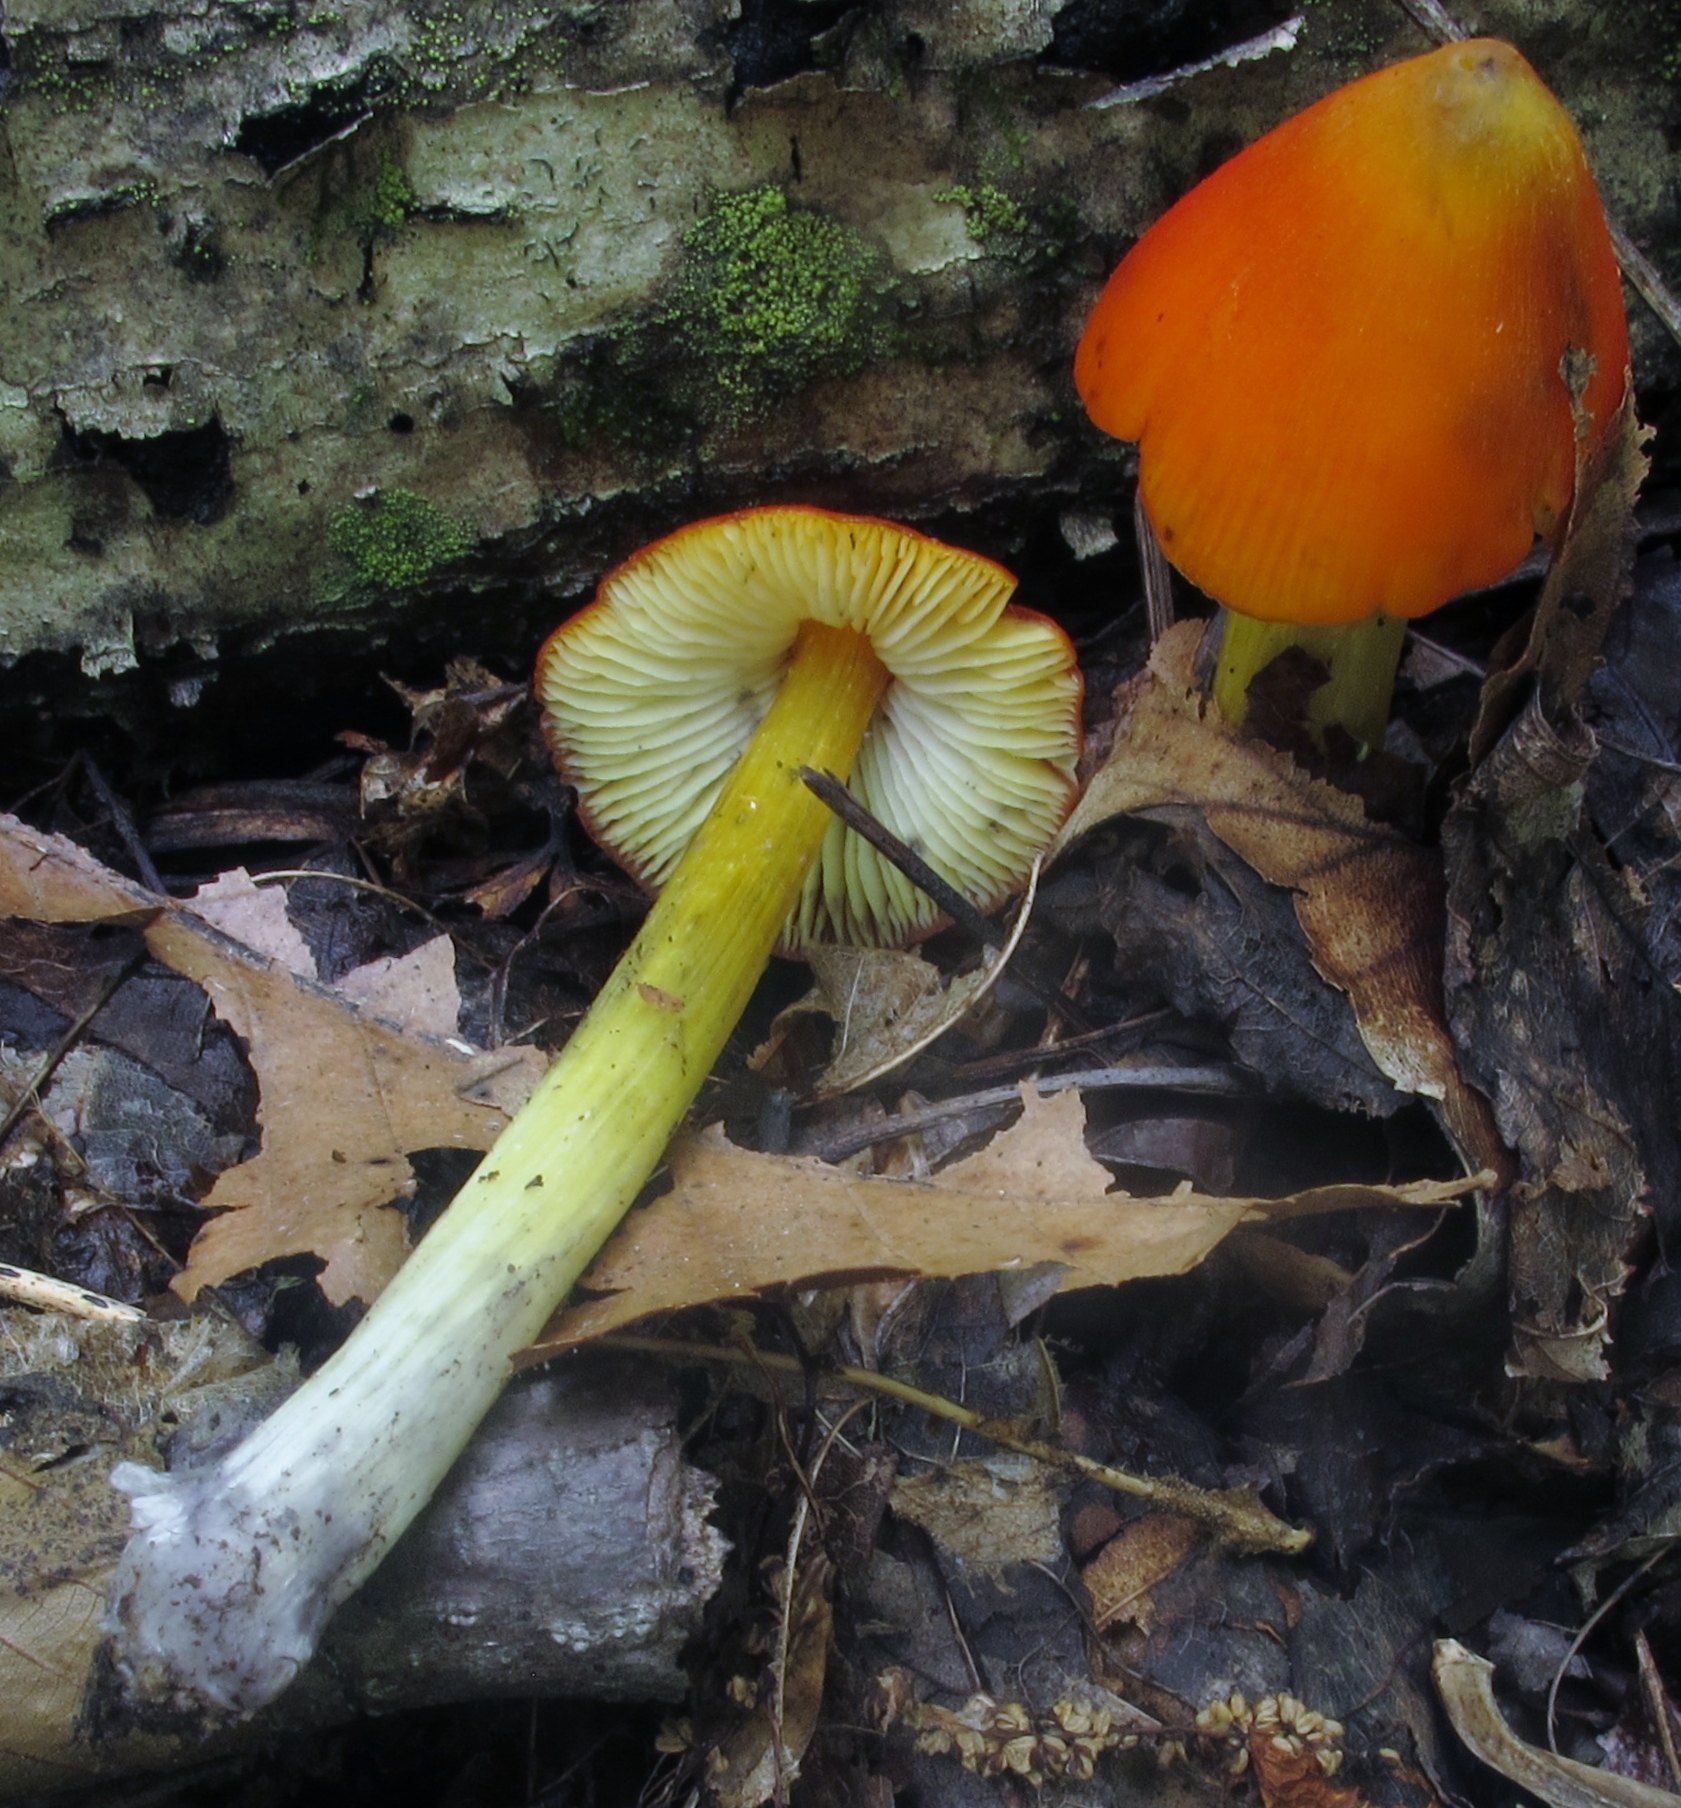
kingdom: Fungi
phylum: Basidiomycota
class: Agaricomycetes
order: Agaricales
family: Hygrophoraceae
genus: Hygrocybe
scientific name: Hygrocybe conica
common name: Blackening wax-cap
